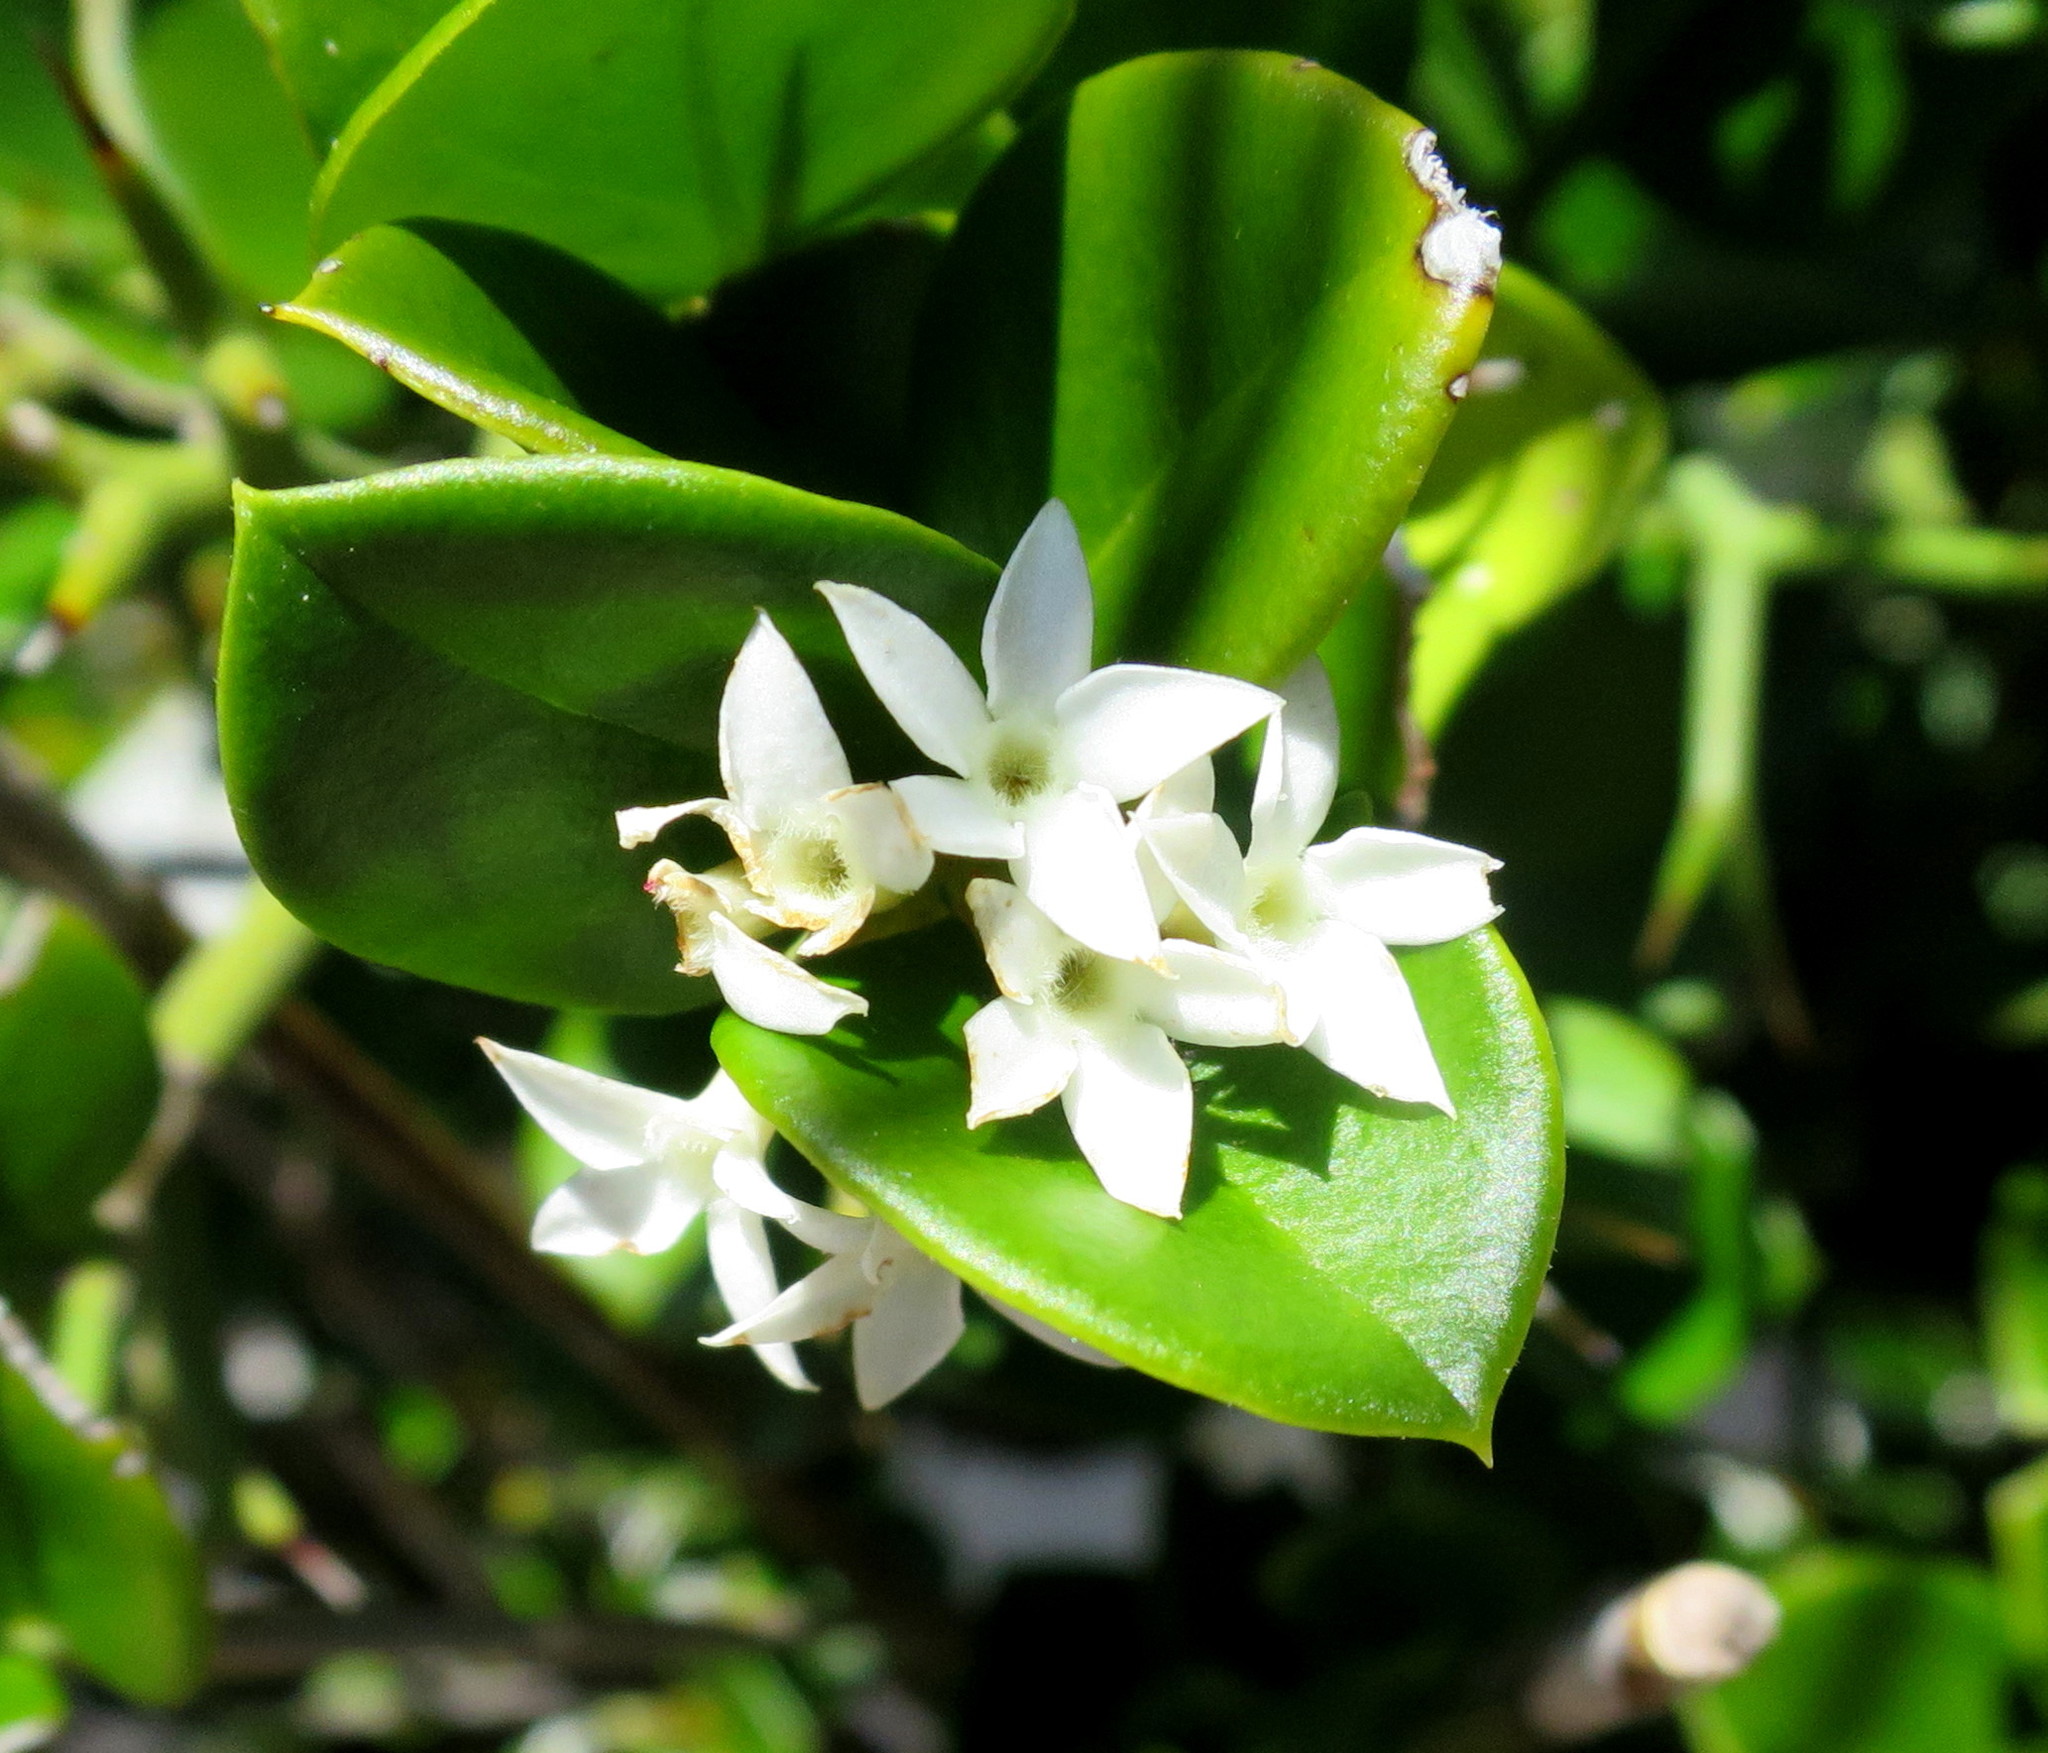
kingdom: Plantae
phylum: Tracheophyta
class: Magnoliopsida
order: Gentianales
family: Apocynaceae
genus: Carissa
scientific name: Carissa bispinosa
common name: Forest num-num
